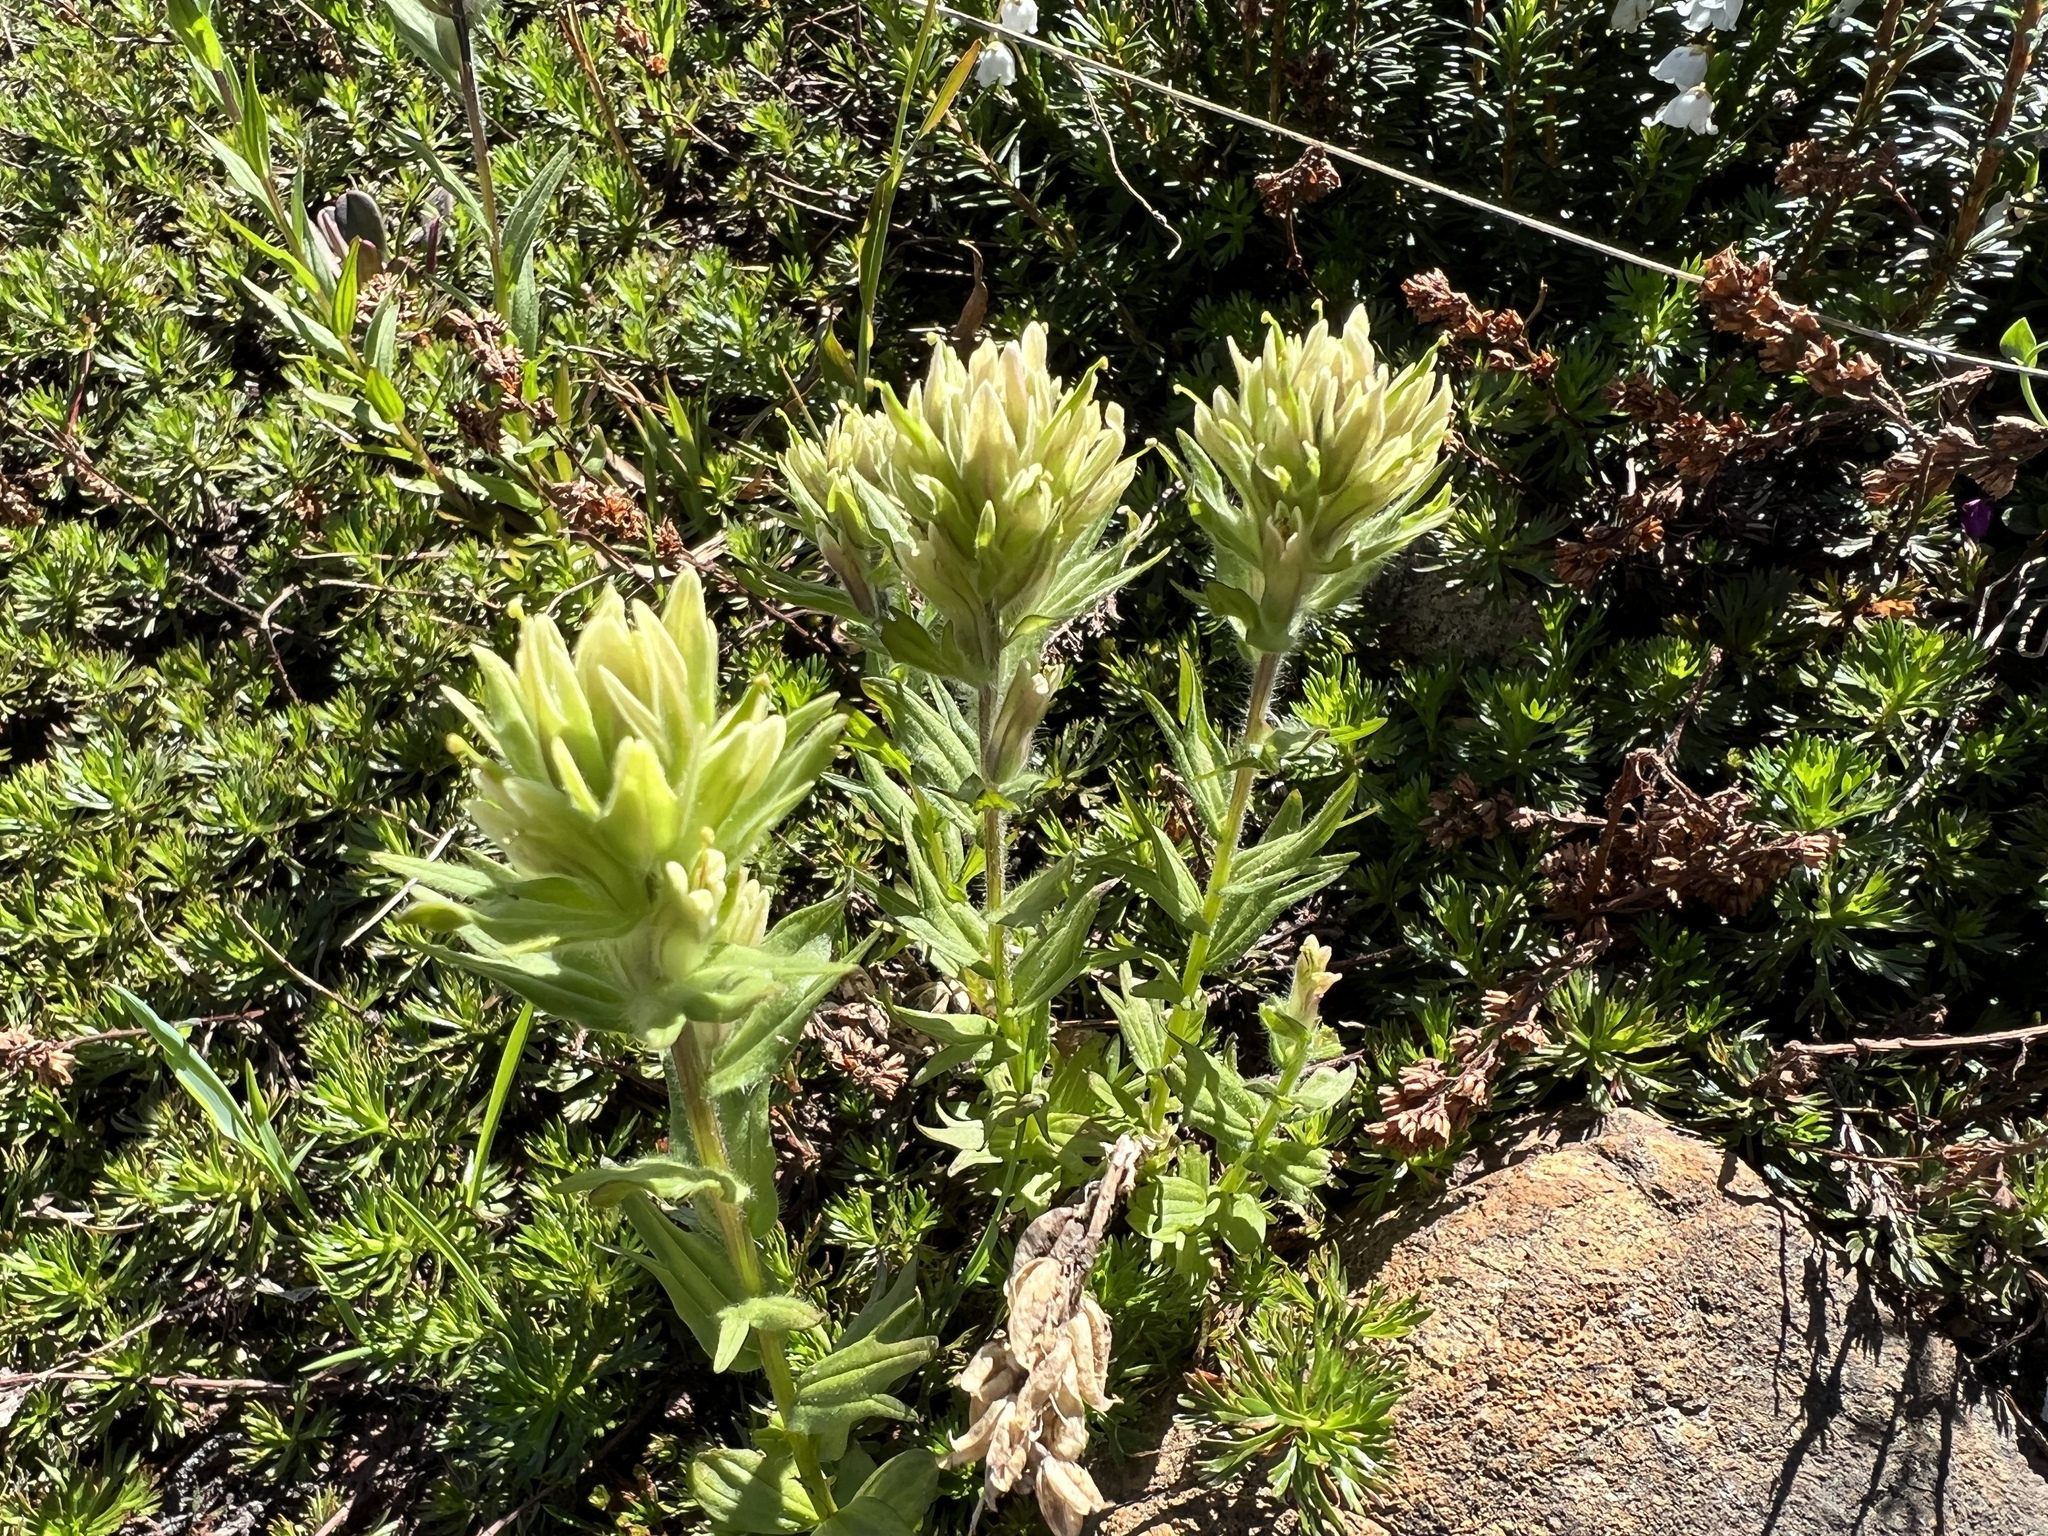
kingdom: Plantae
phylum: Tracheophyta
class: Magnoliopsida
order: Lamiales
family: Orobanchaceae
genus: Castilleja
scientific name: Castilleja parviflora
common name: Mountain paintbrush
